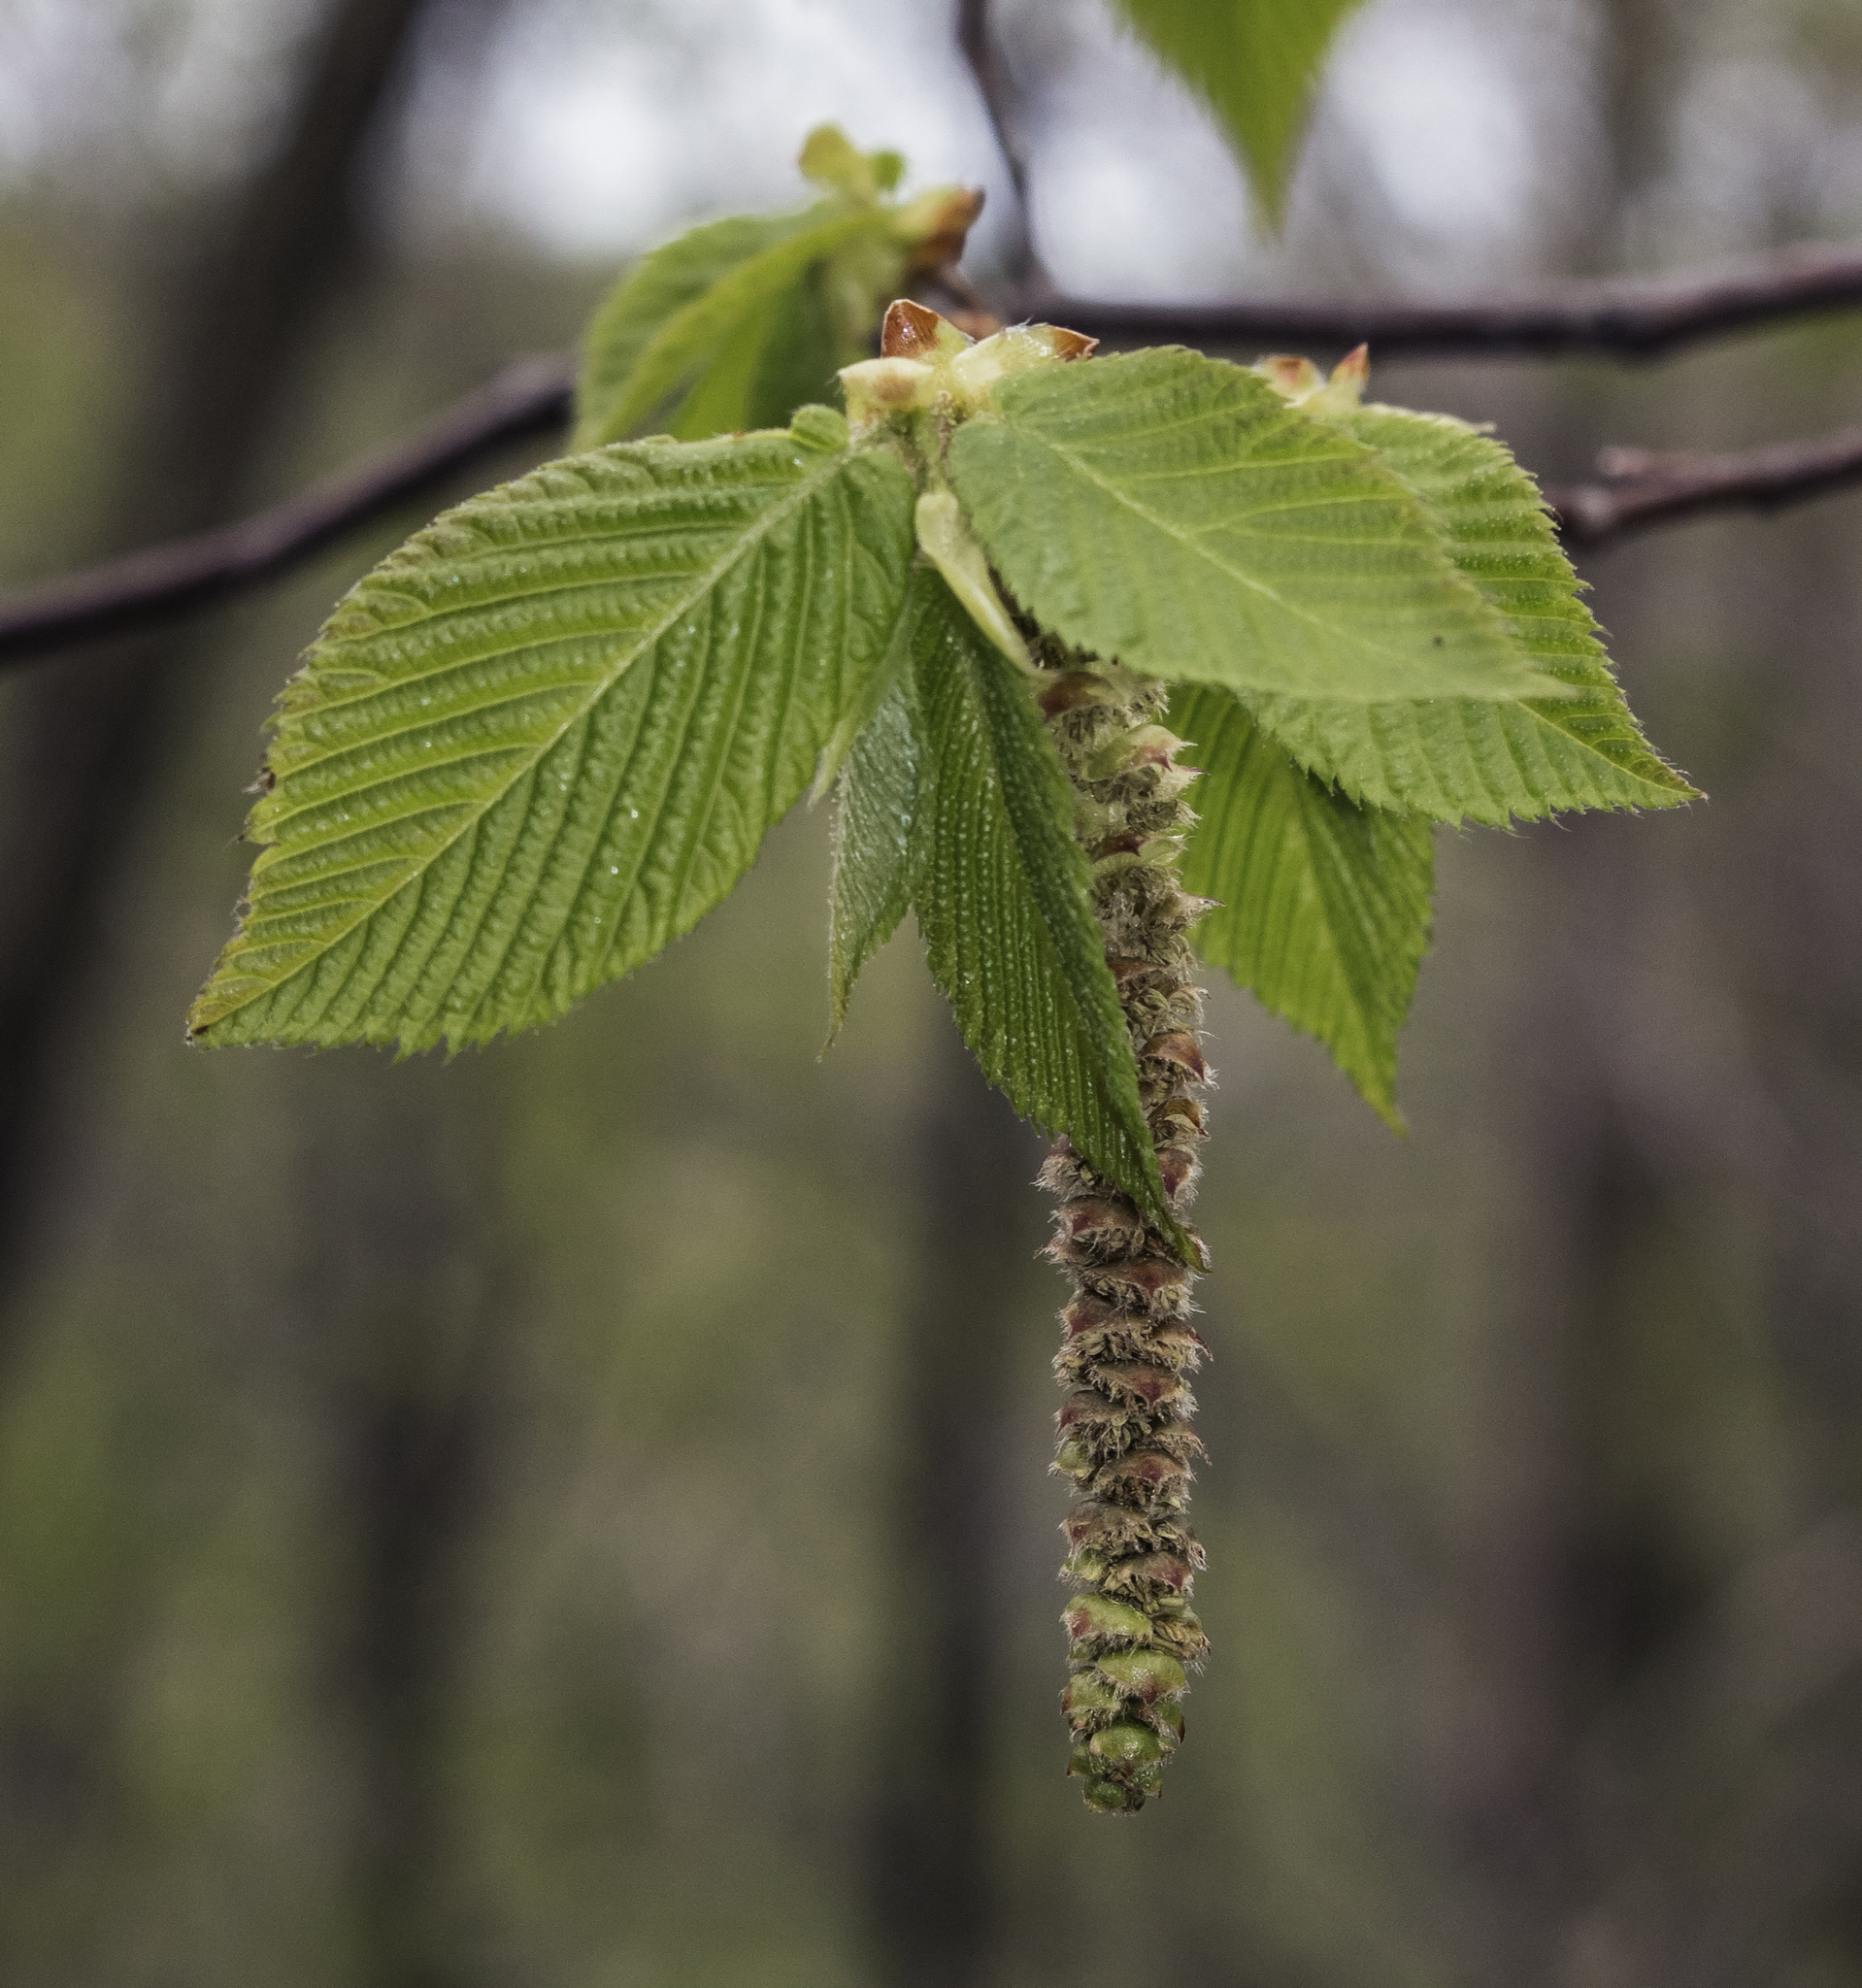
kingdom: Plantae
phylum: Tracheophyta
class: Magnoliopsida
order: Fagales
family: Betulaceae
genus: Ostrya
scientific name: Ostrya virginiana
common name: Ironwood
